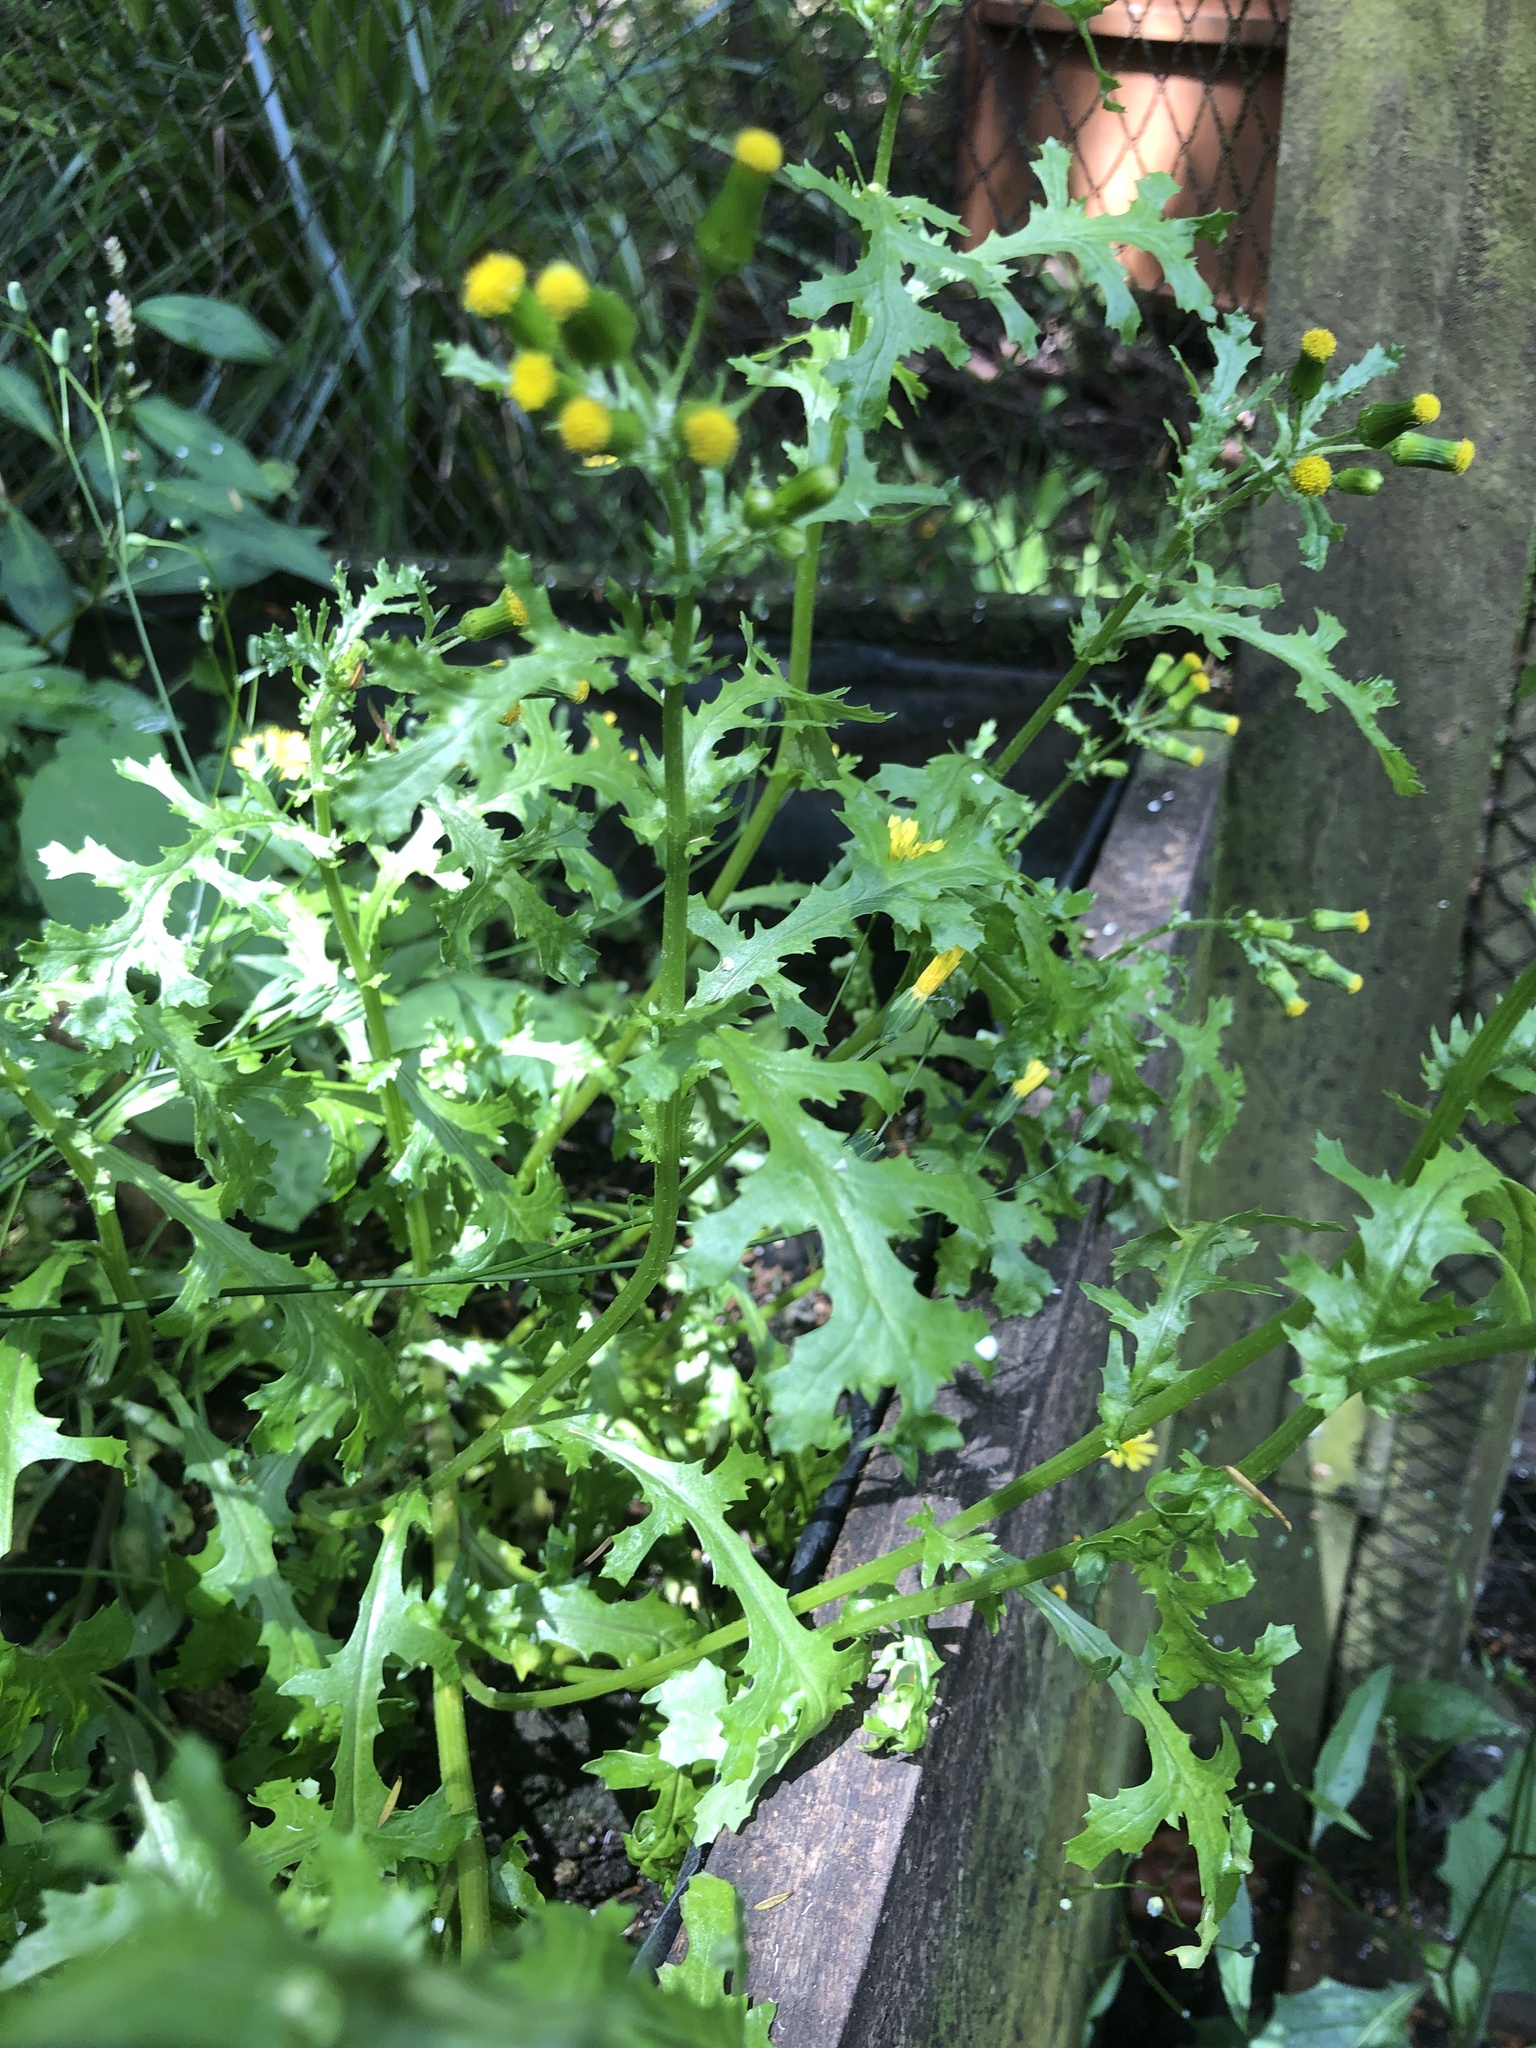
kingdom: Plantae
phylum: Tracheophyta
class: Magnoliopsida
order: Asterales
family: Asteraceae
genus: Senecio
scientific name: Senecio vulgaris
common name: Old-man-in-the-spring
